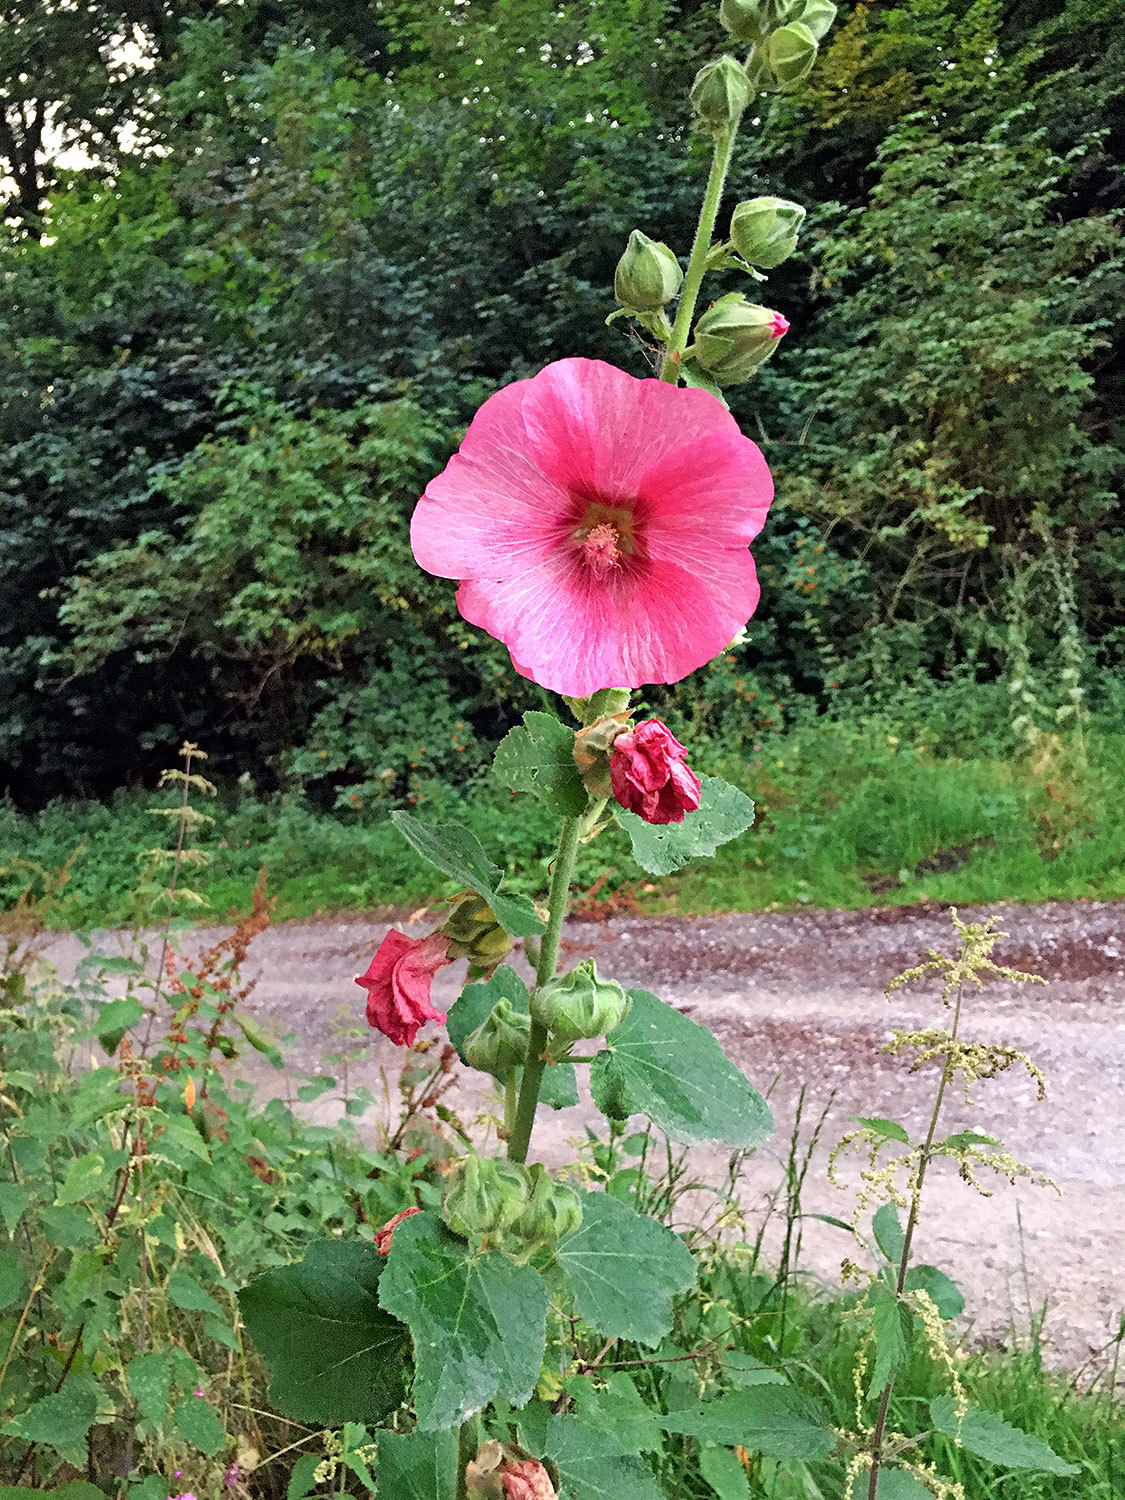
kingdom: Plantae
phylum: Tracheophyta
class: Magnoliopsida
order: Malvales
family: Malvaceae
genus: Alcea
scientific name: Alcea rosea
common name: Hollyhock
